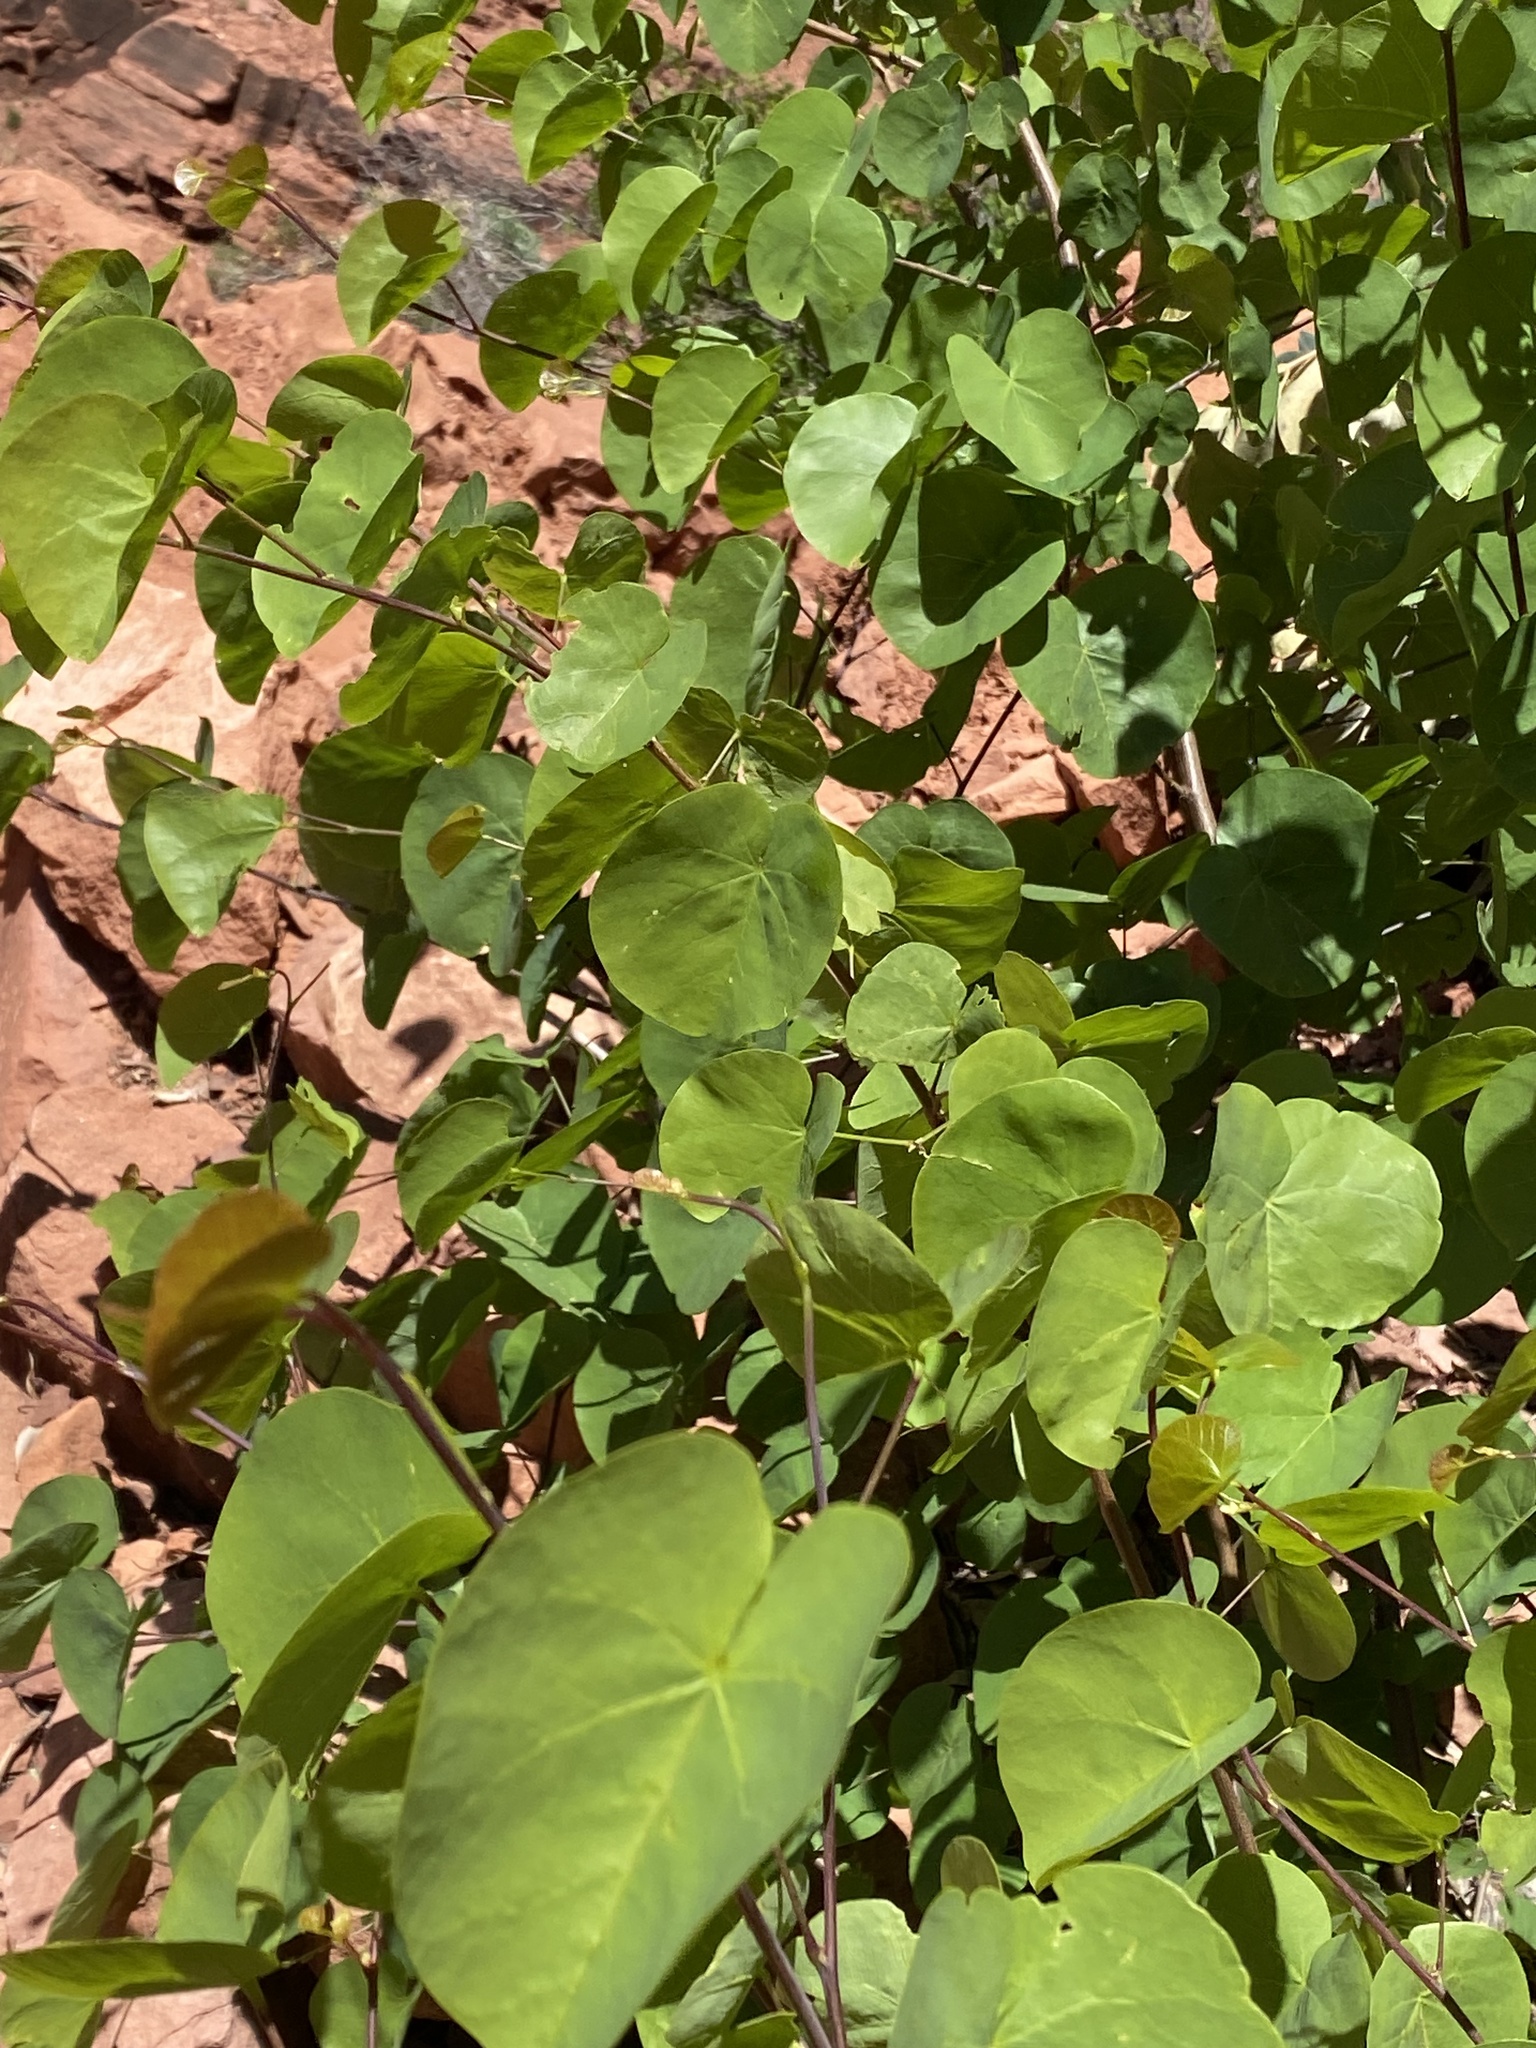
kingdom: Plantae
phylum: Tracheophyta
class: Magnoliopsida
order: Fabales
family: Fabaceae
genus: Cercis
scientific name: Cercis occidentalis
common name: California redbud
